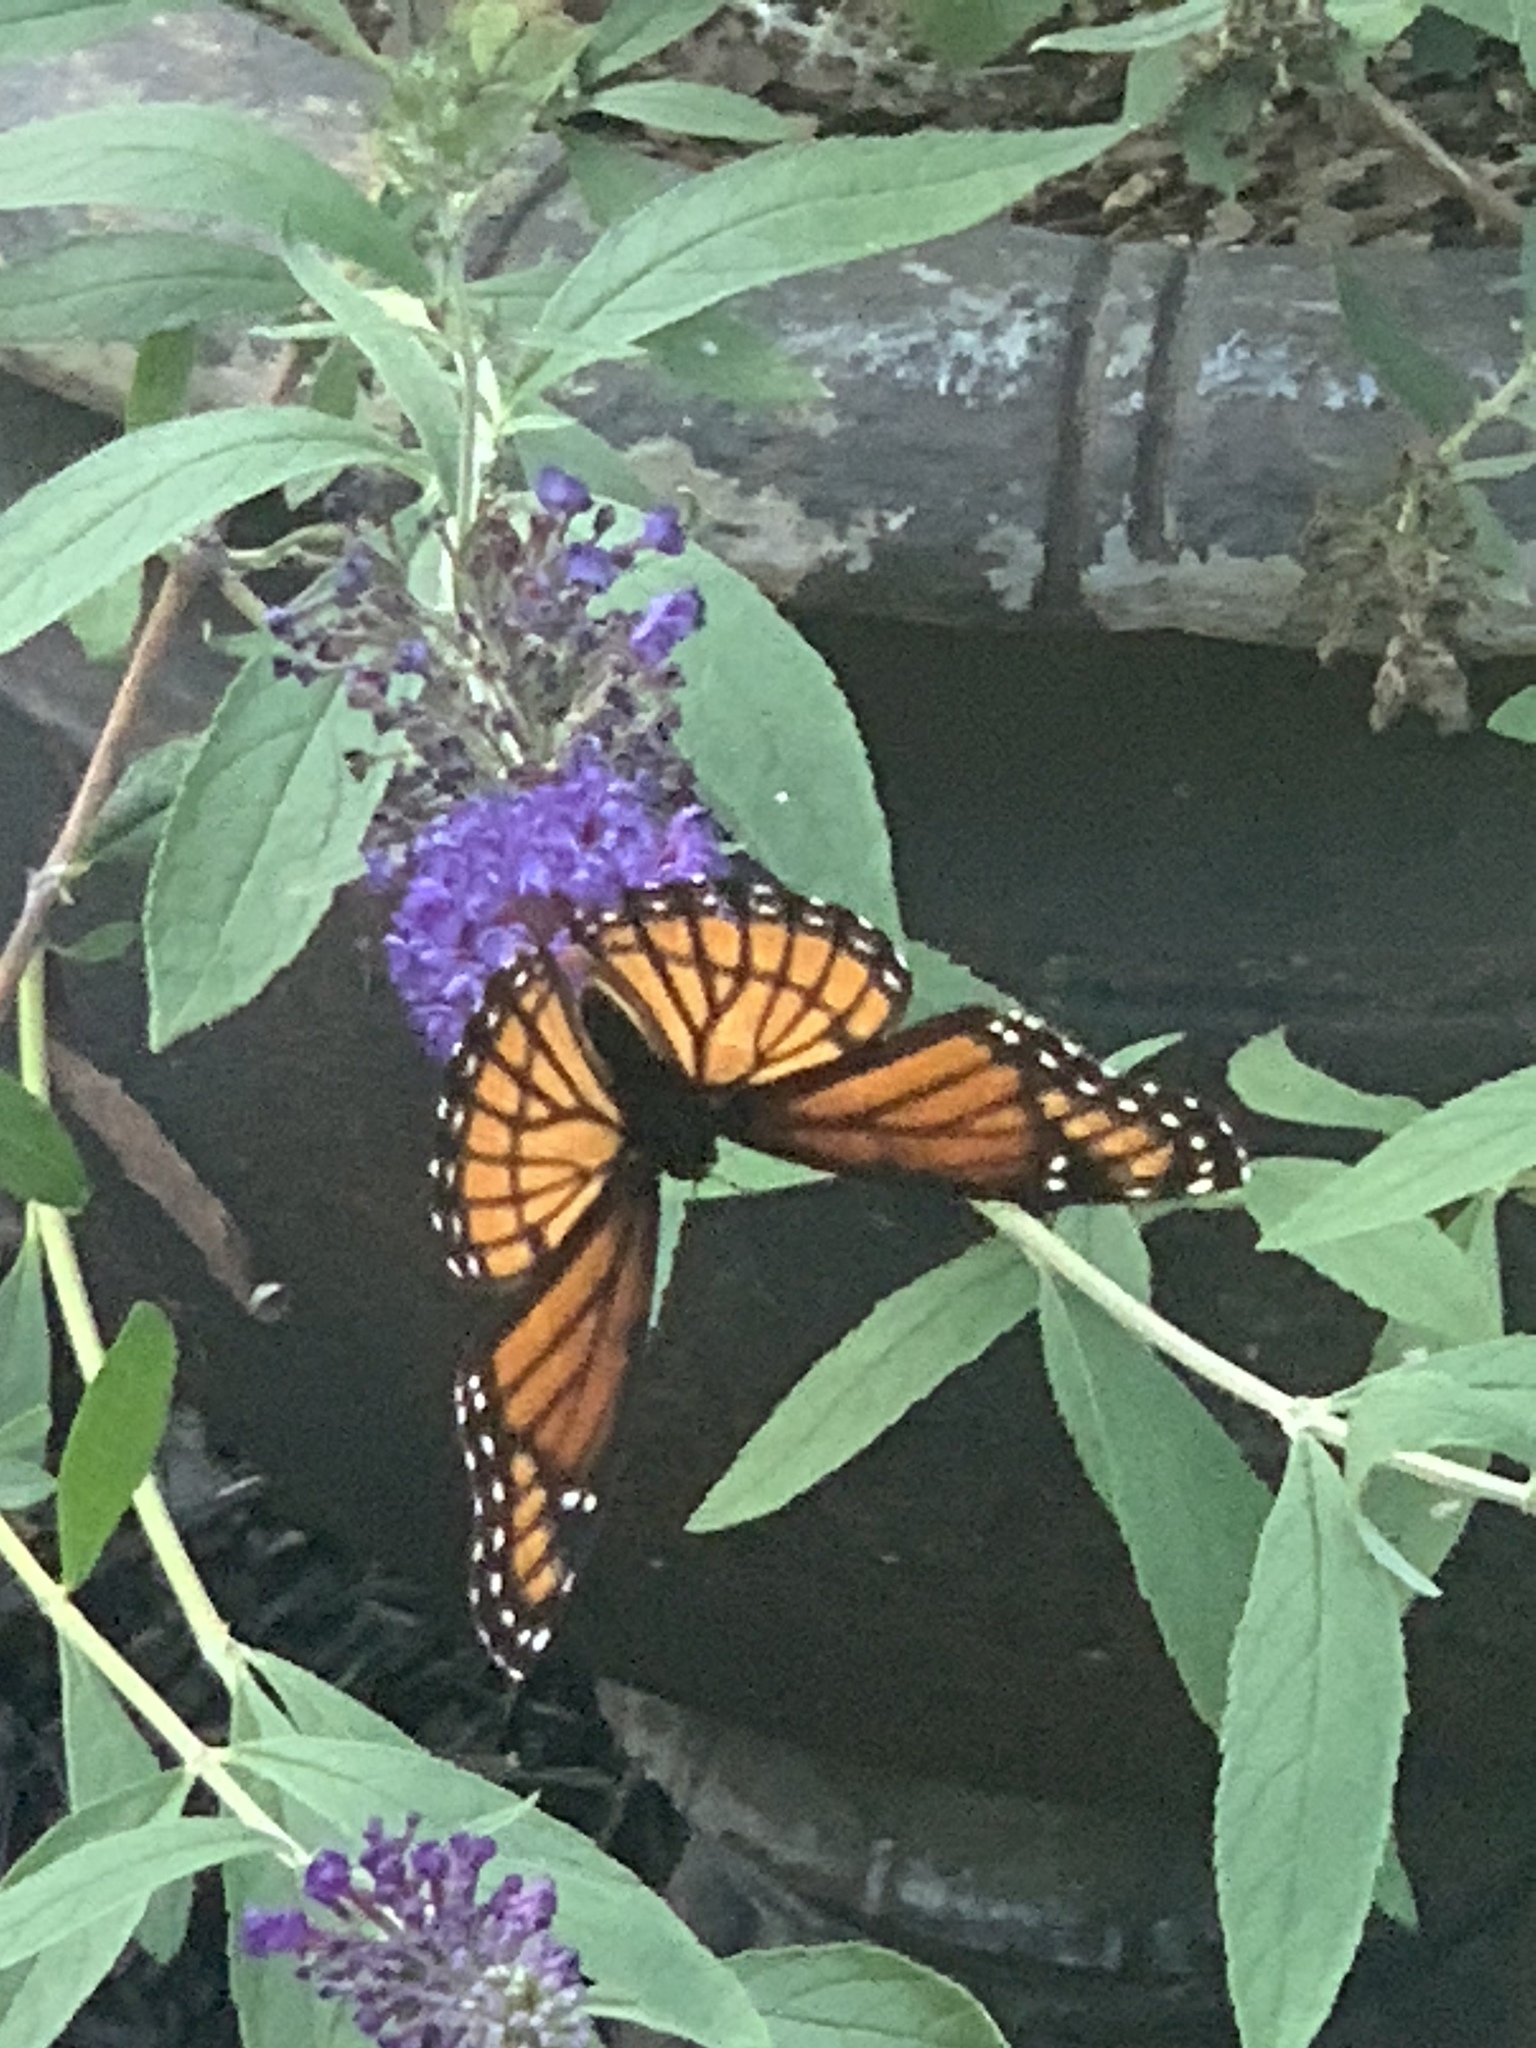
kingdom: Animalia
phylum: Arthropoda
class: Insecta
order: Lepidoptera
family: Nymphalidae
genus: Limenitis
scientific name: Limenitis archippus
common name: Viceroy
